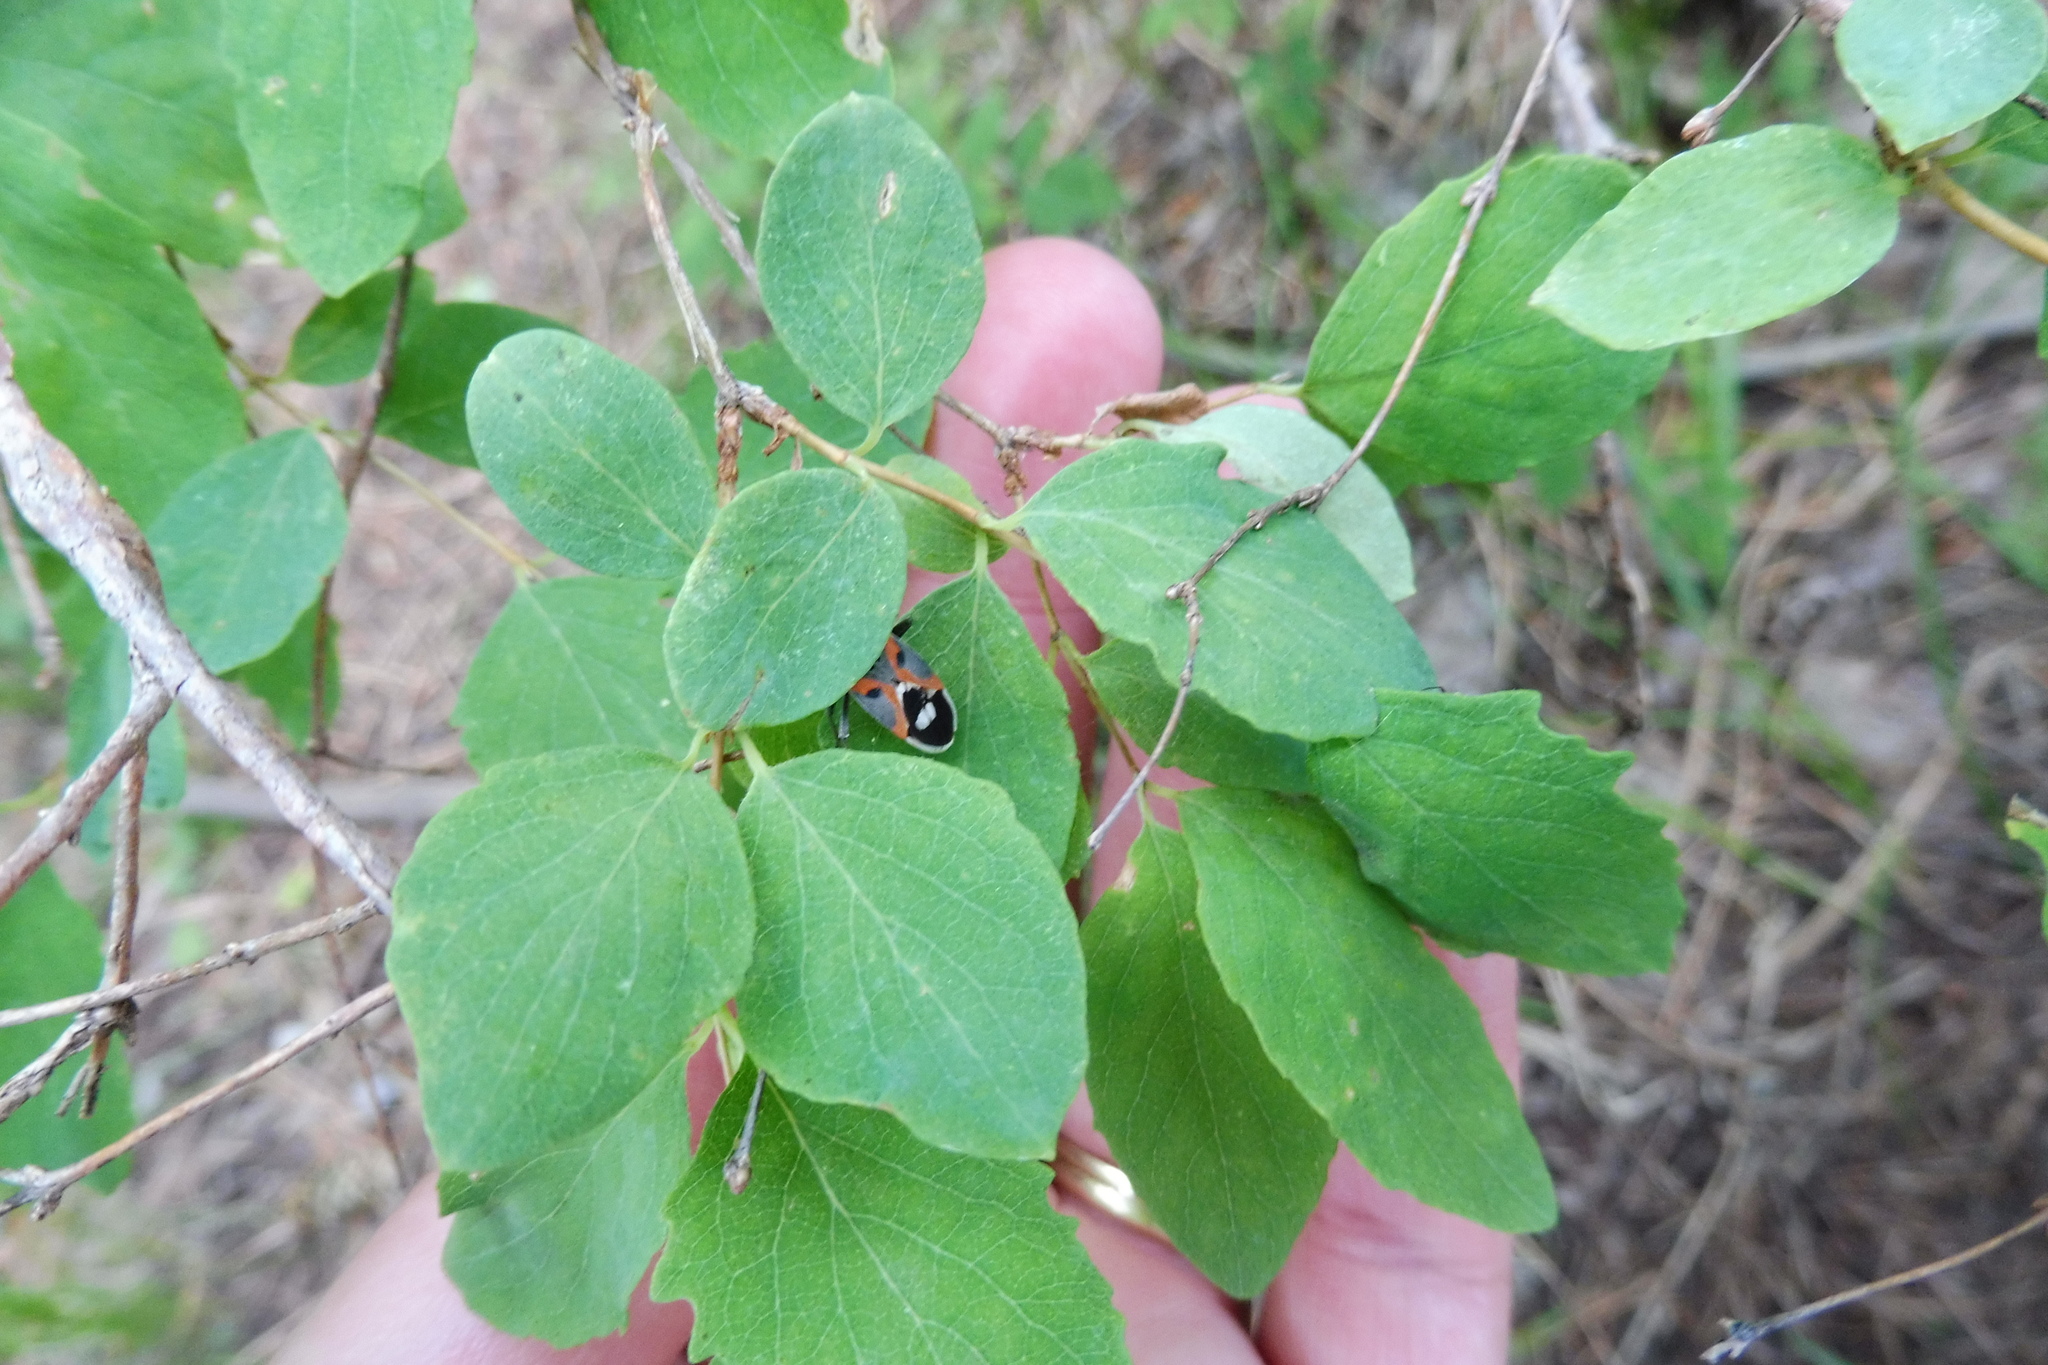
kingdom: Animalia
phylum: Arthropoda
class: Insecta
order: Hemiptera
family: Lygaeidae
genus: Lygaeus
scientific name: Lygaeus kalmii
